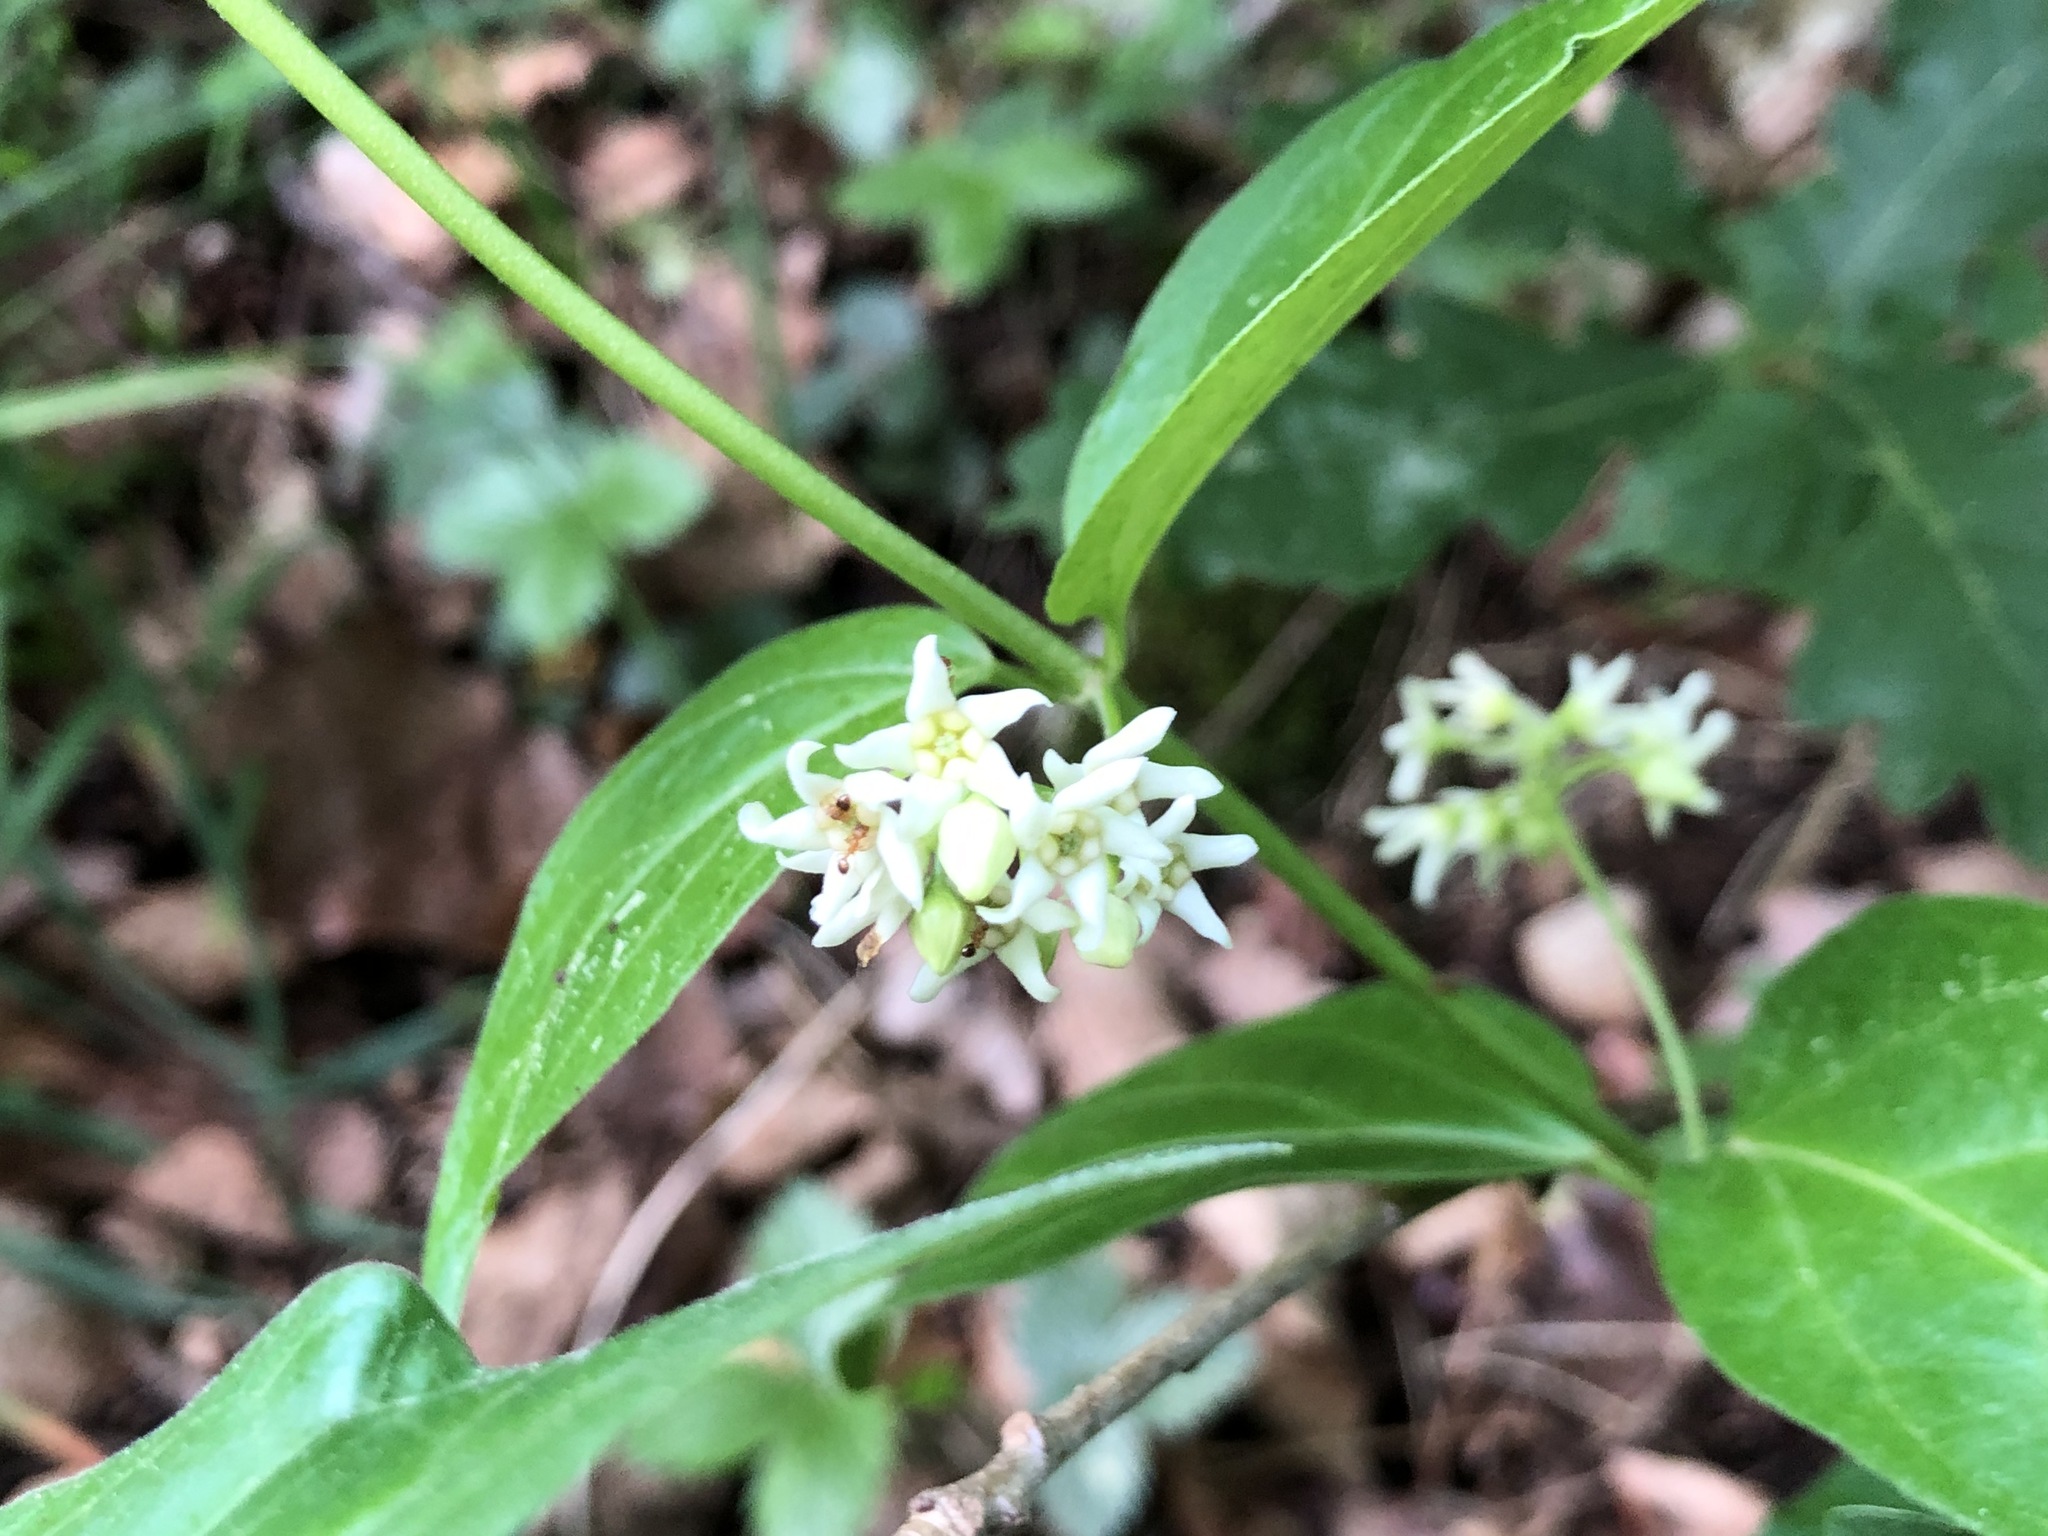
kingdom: Plantae
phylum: Tracheophyta
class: Magnoliopsida
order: Gentianales
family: Apocynaceae
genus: Vincetoxicum
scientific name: Vincetoxicum hirundinaria
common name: White swallowwort
